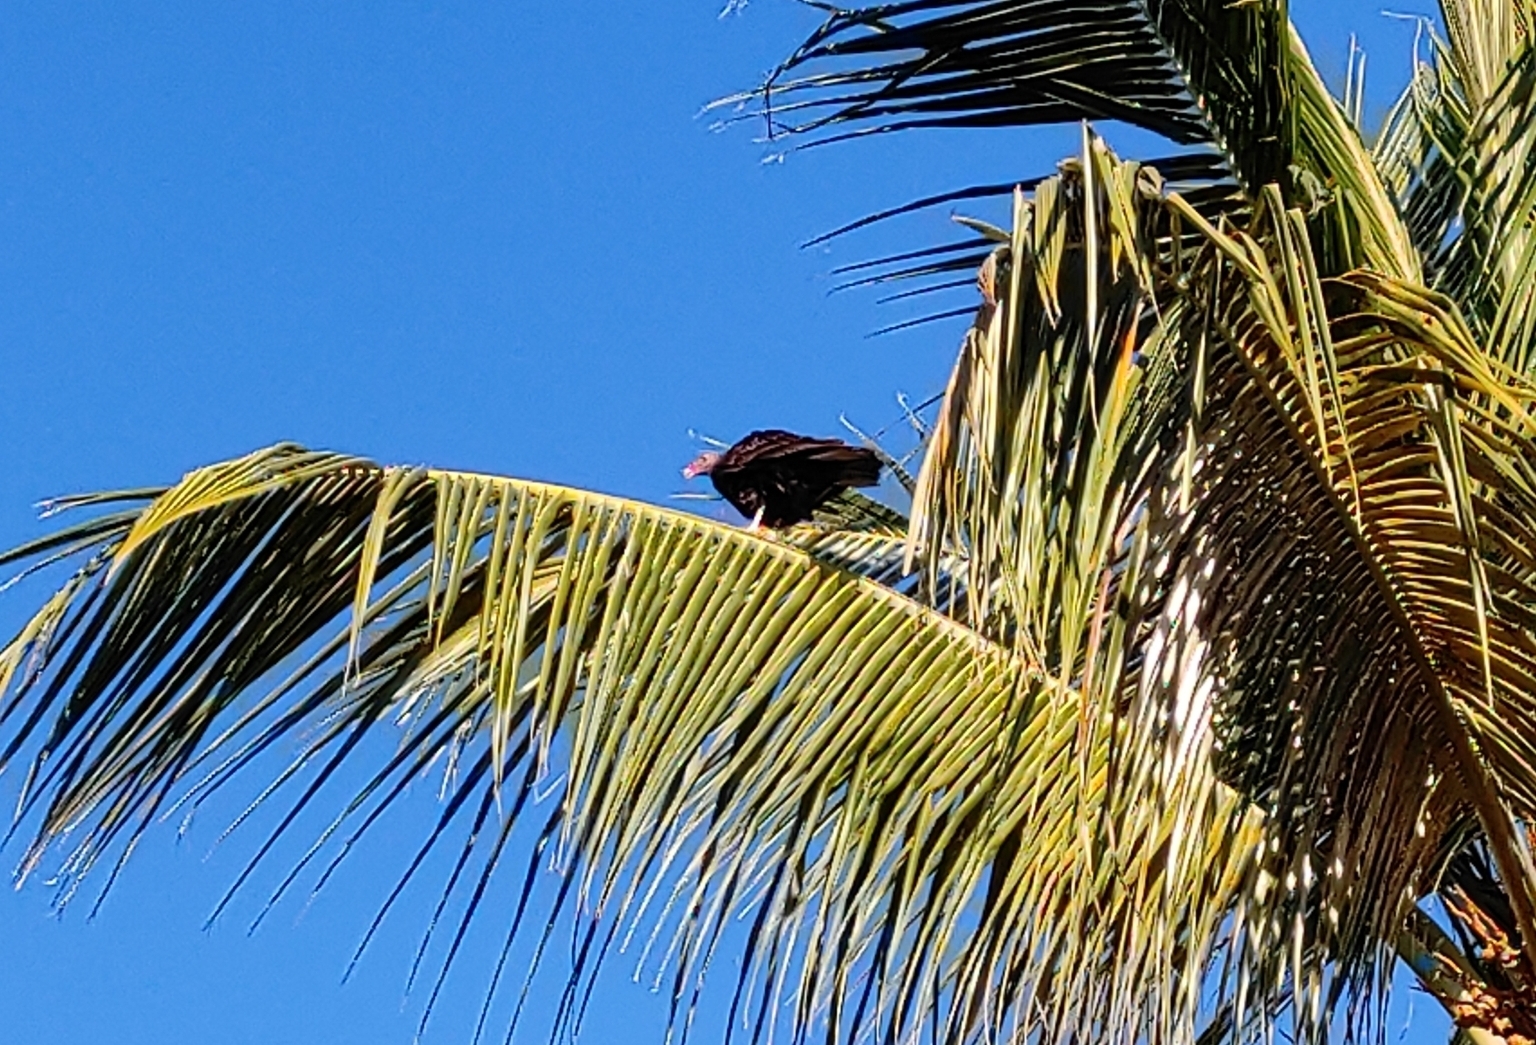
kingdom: Animalia
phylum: Chordata
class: Aves
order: Accipitriformes
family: Cathartidae
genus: Cathartes
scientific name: Cathartes aura
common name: Turkey vulture
